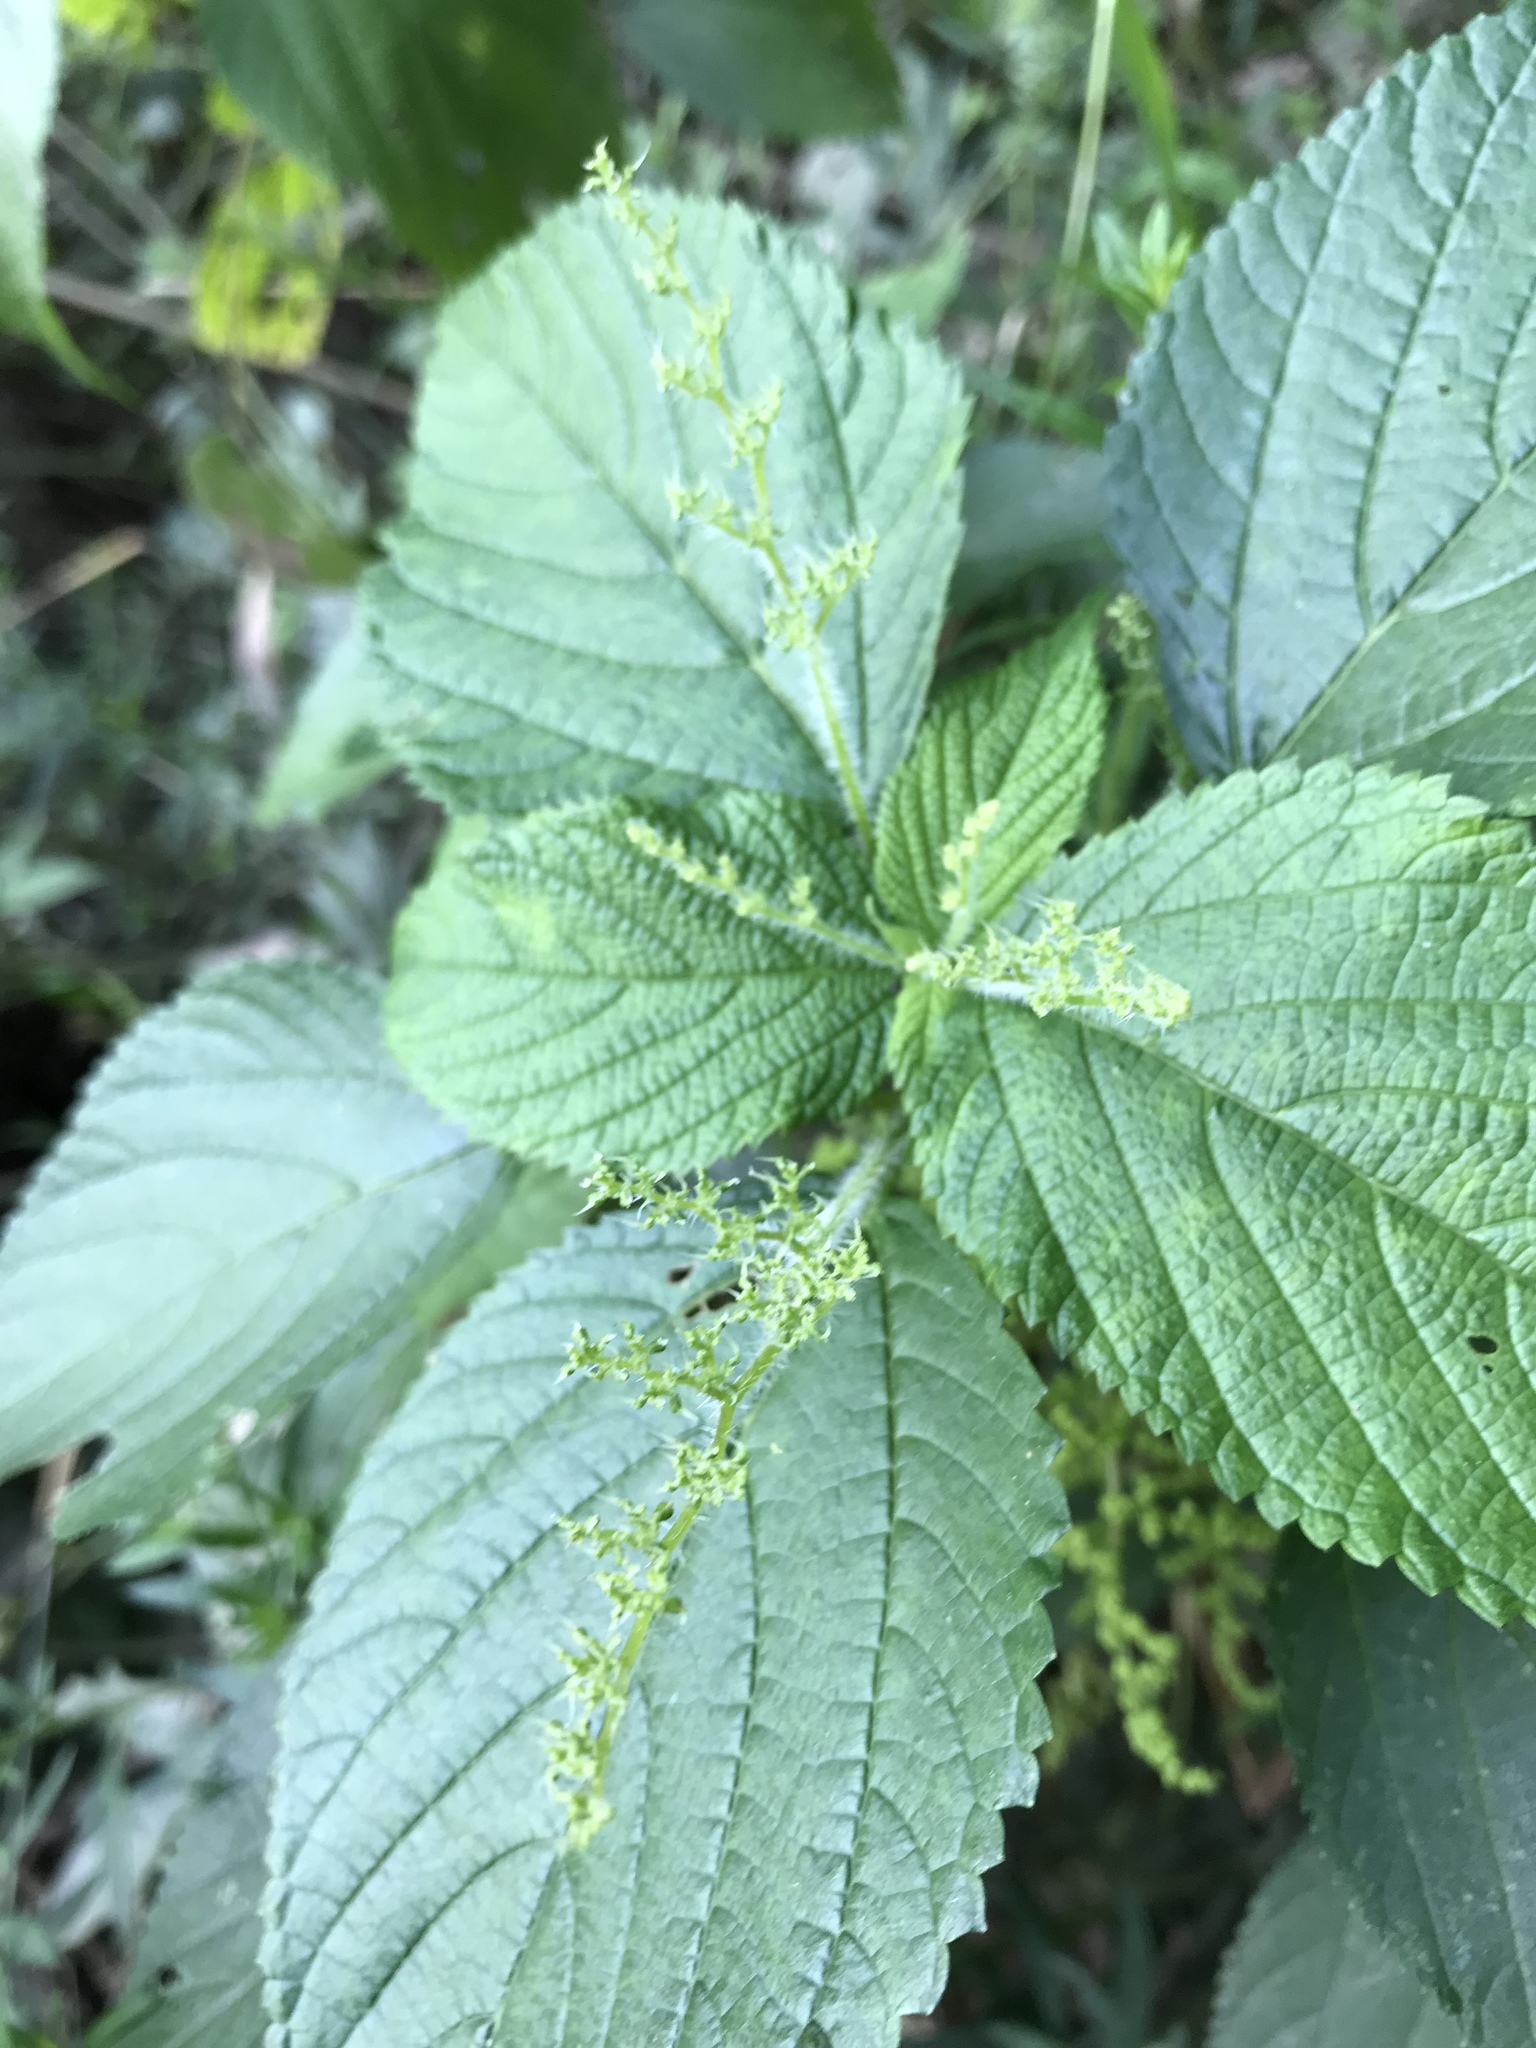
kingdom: Plantae
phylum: Tracheophyta
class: Magnoliopsida
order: Rosales
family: Urticaceae
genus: Laportea
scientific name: Laportea canadensis
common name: Canada nettle
